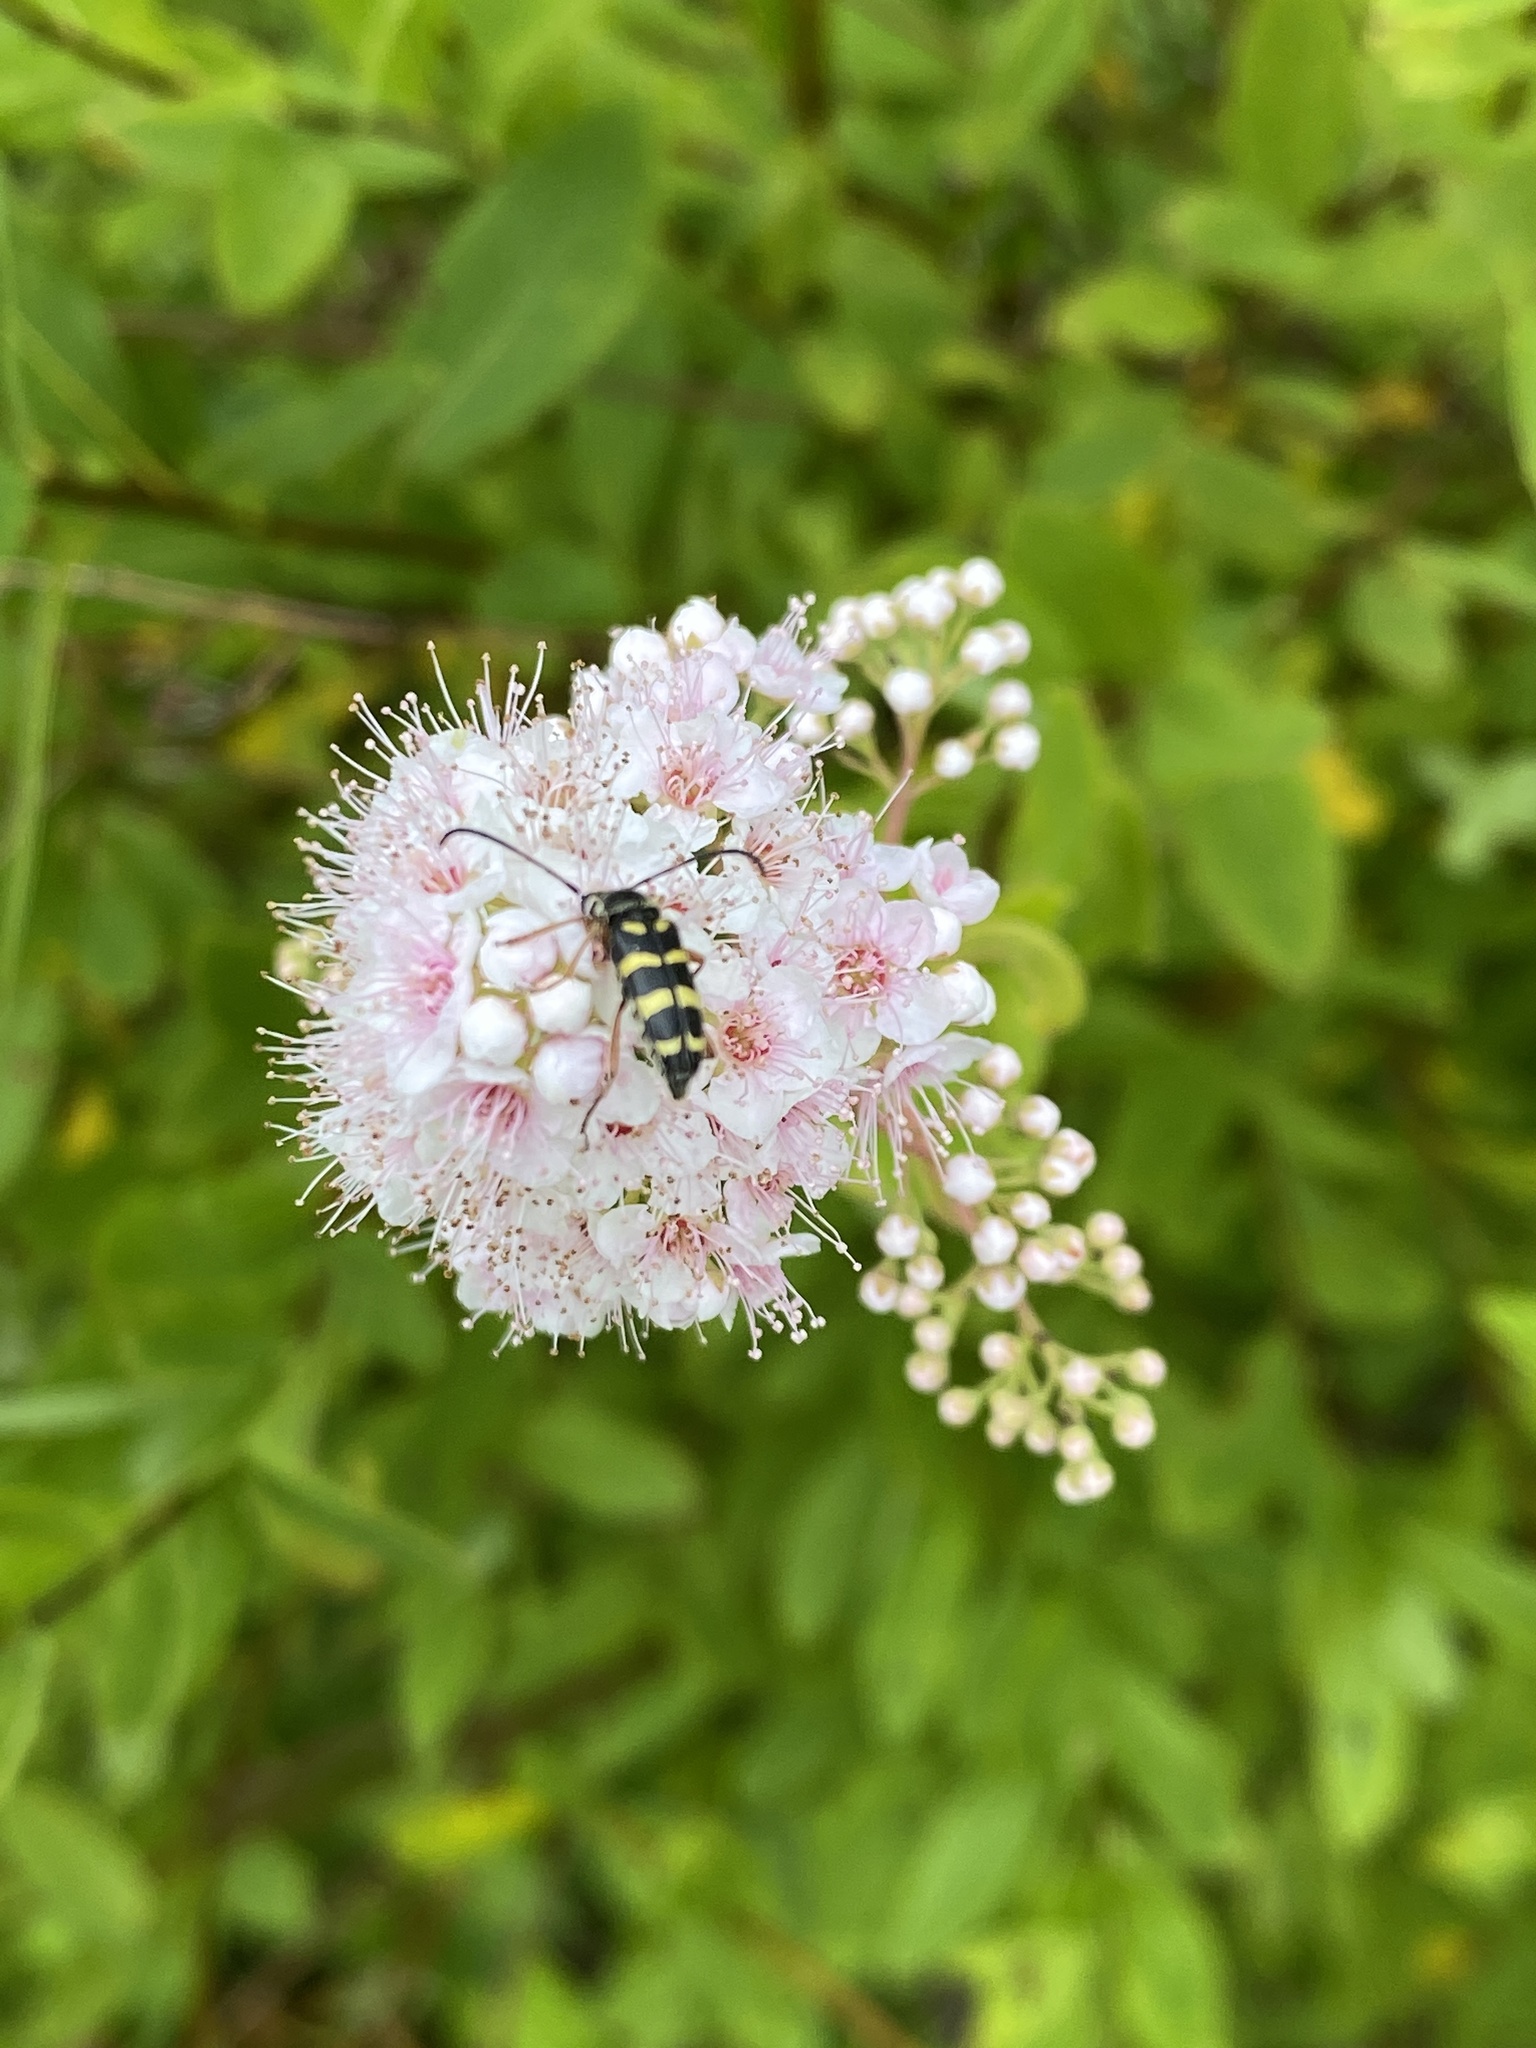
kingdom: Animalia
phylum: Arthropoda
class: Insecta
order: Coleoptera
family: Cerambycidae
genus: Typocerus
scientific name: Typocerus sparsus
